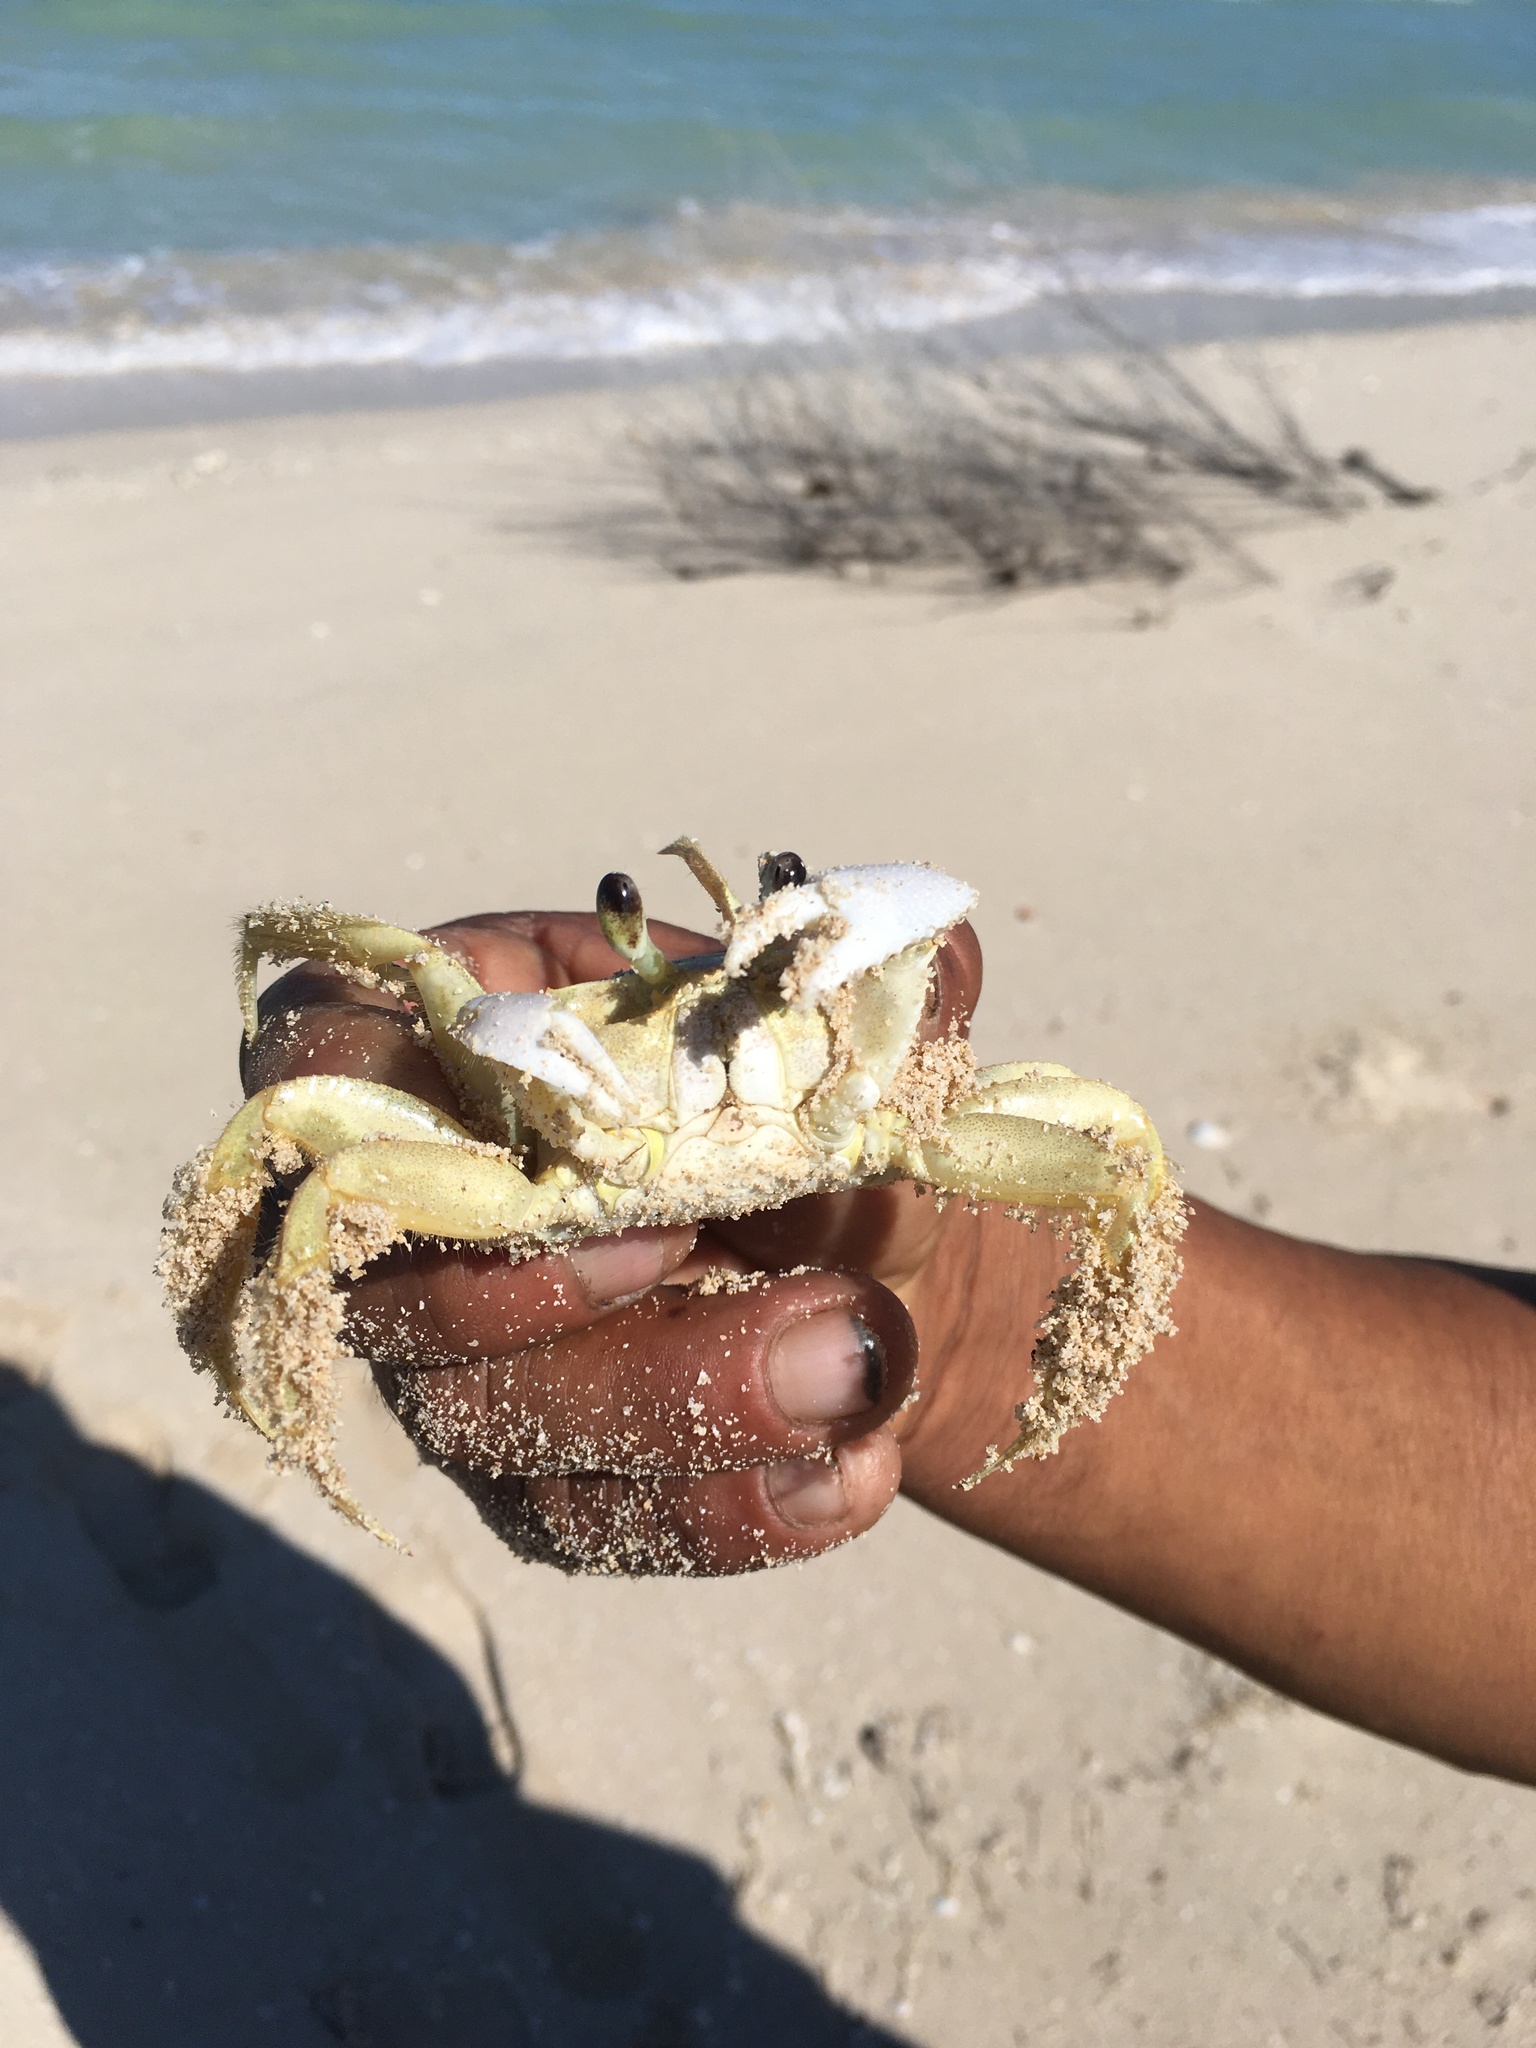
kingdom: Animalia
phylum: Arthropoda
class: Malacostraca
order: Decapoda
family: Ocypodidae
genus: Ocypode
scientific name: Ocypode quadrata
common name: Ghost crab
